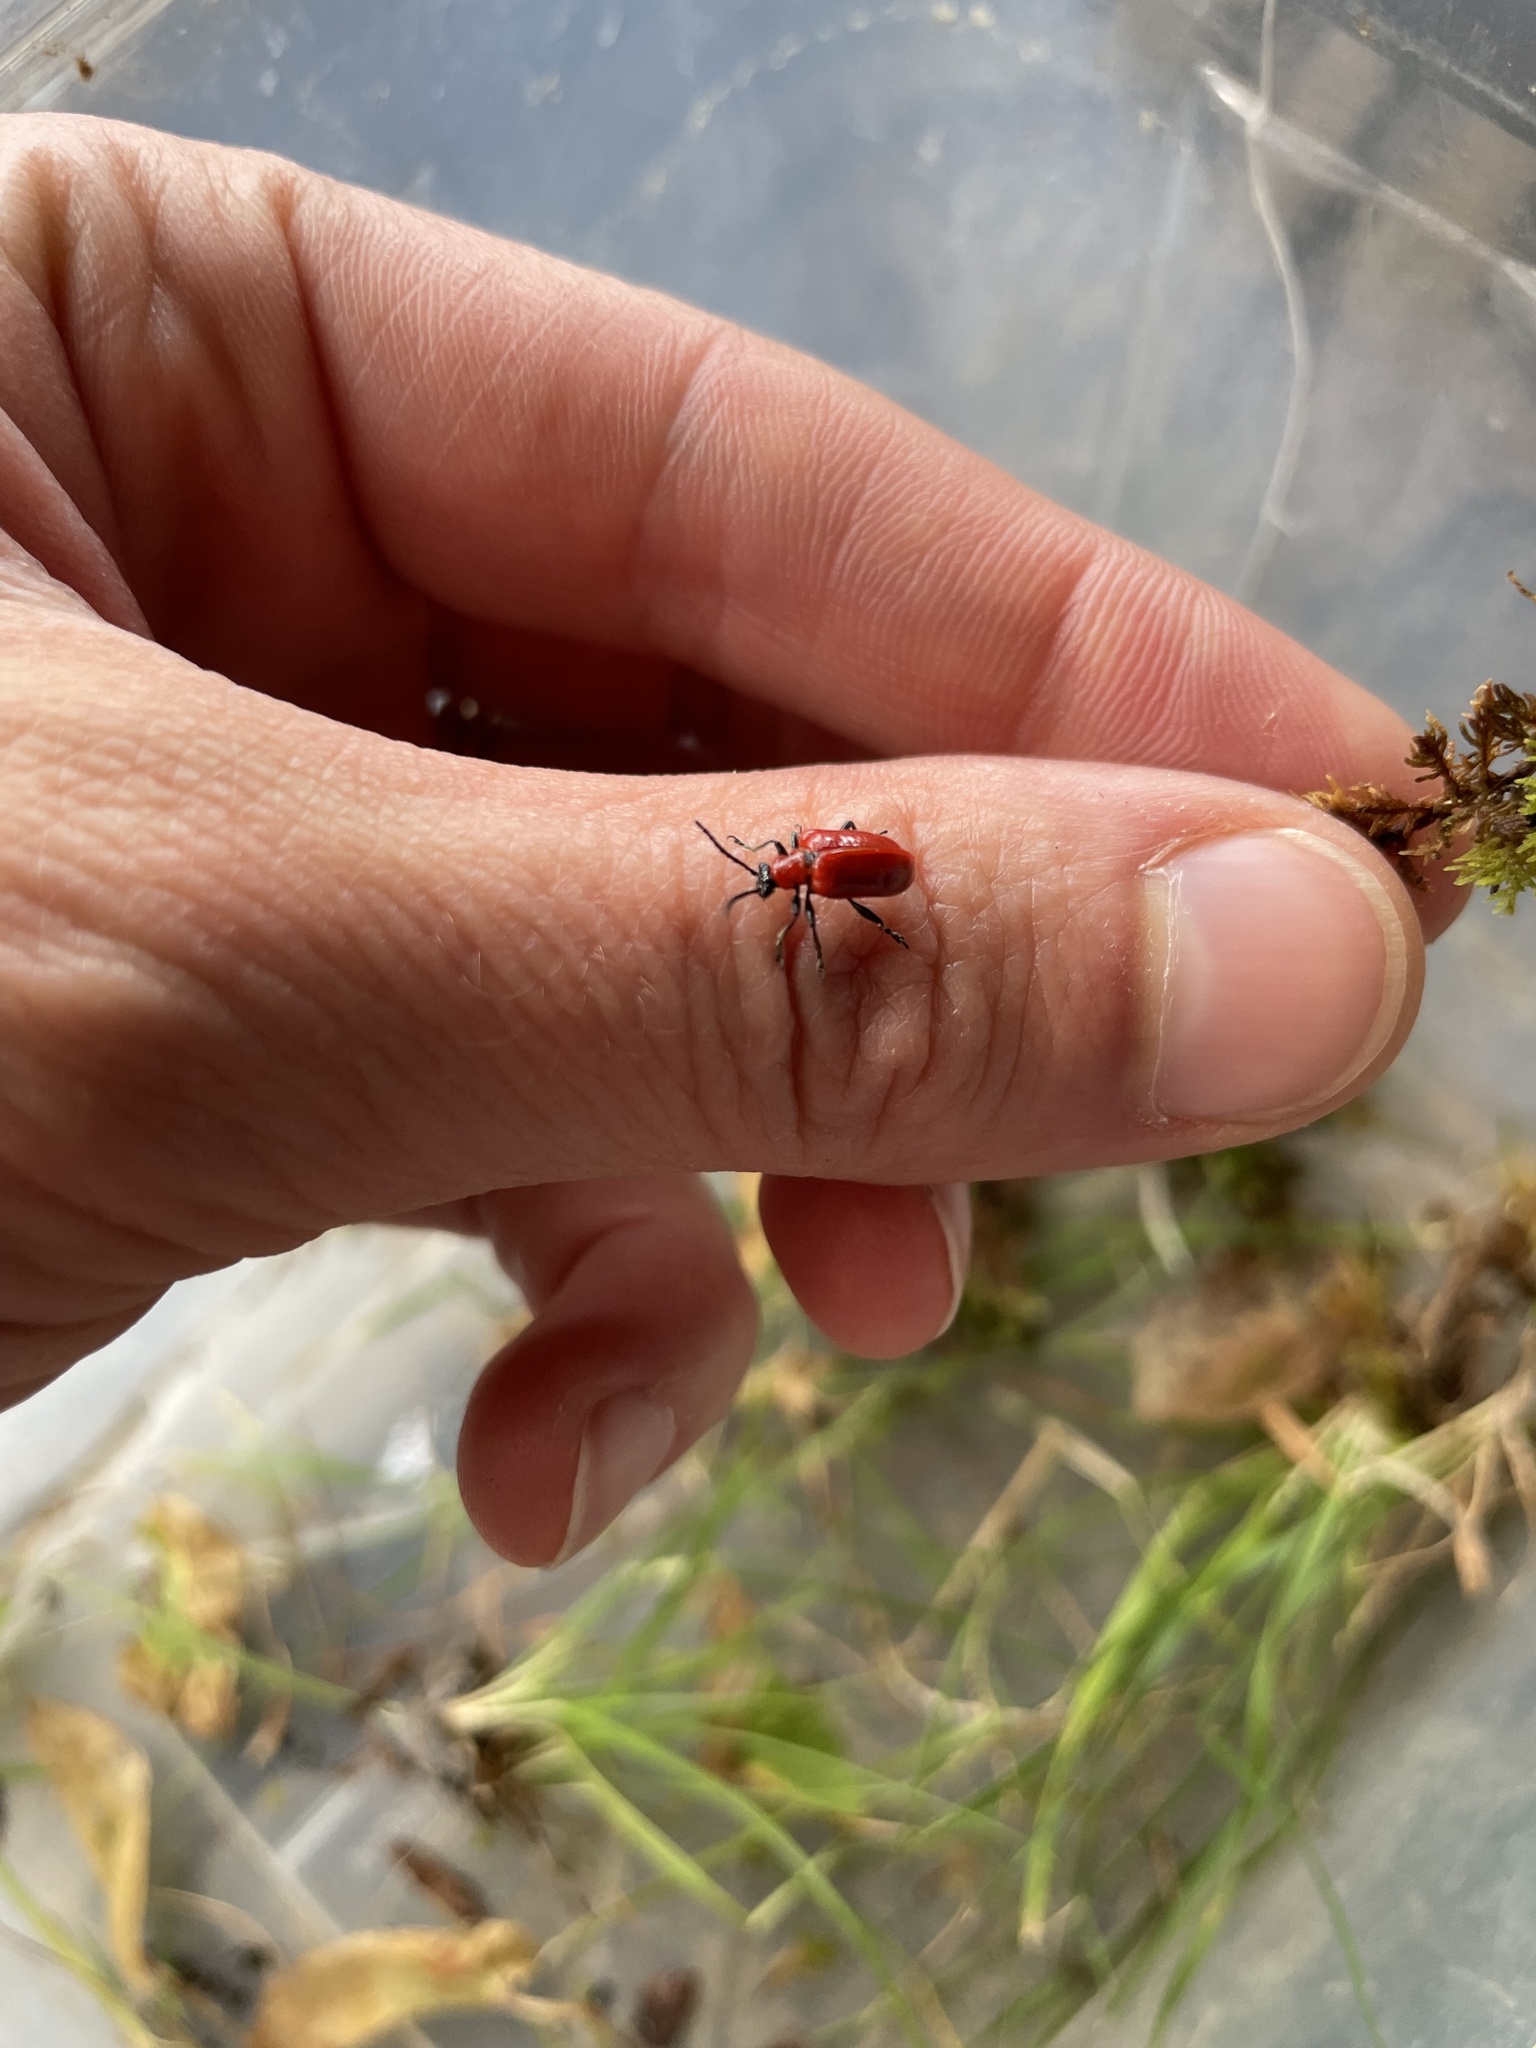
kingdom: Animalia
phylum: Arthropoda
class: Insecta
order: Coleoptera
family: Chrysomelidae
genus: Lilioceris
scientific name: Lilioceris lilii
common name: Lily beetle
